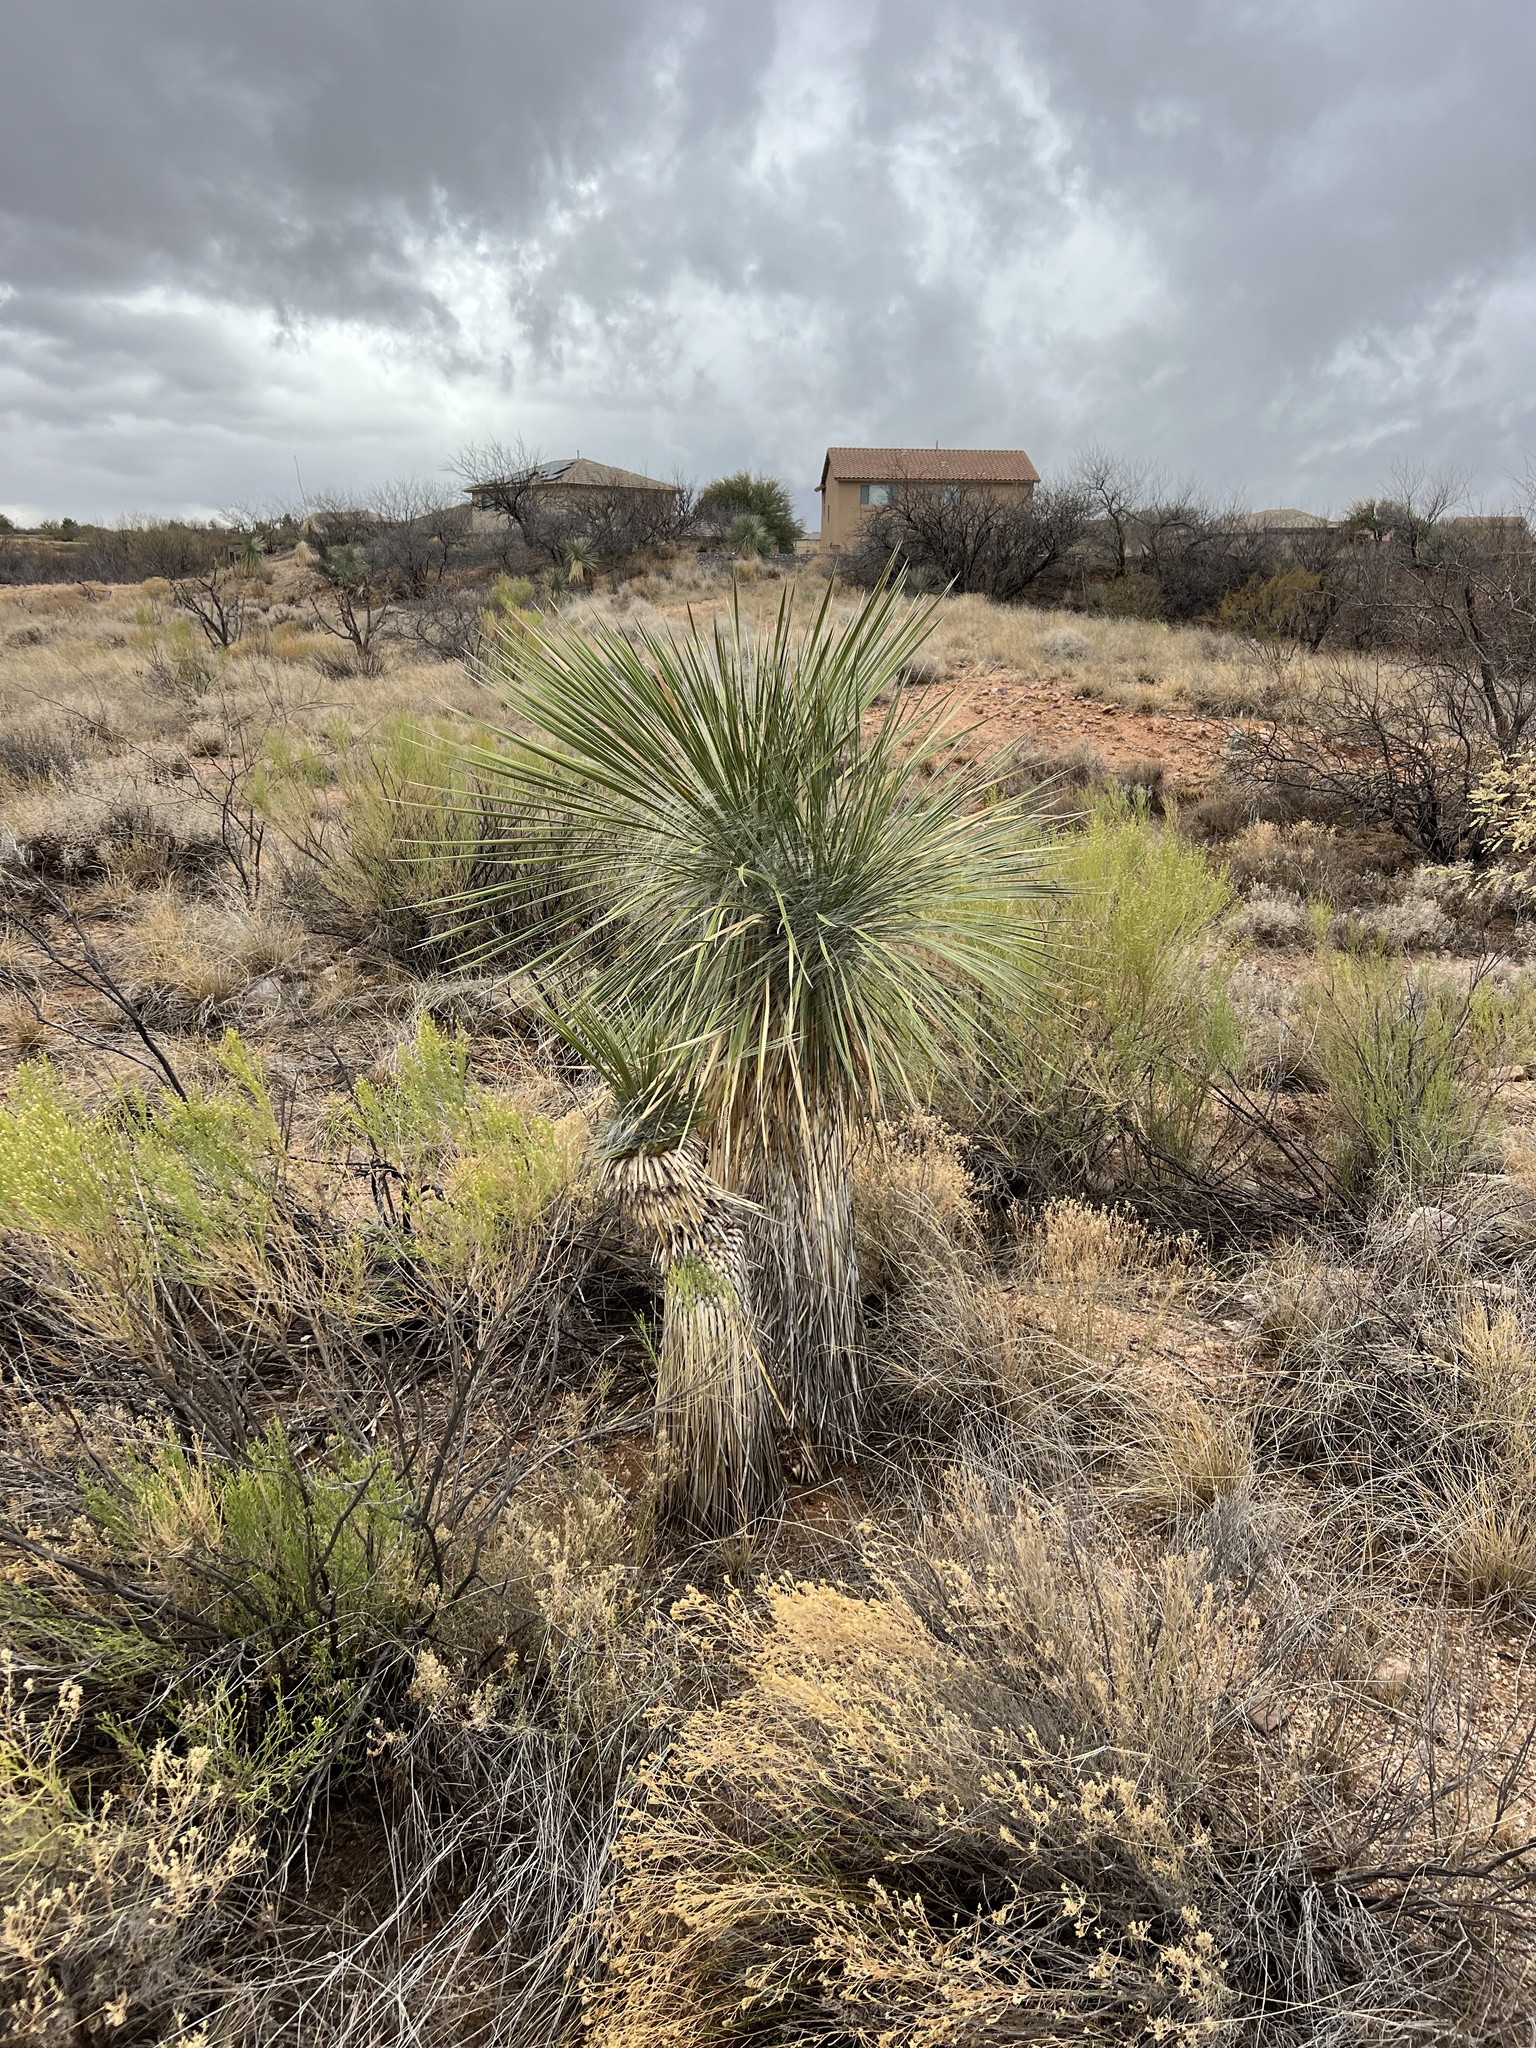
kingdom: Plantae
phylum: Tracheophyta
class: Liliopsida
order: Asparagales
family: Asparagaceae
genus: Yucca
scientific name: Yucca elata
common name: Palmella
